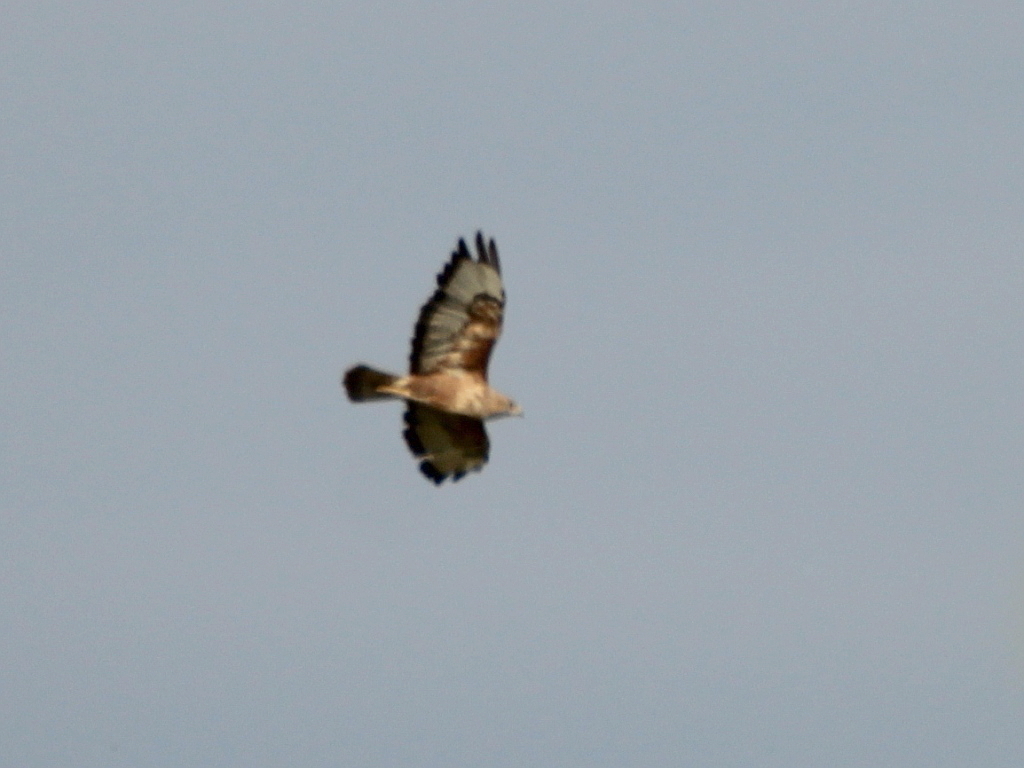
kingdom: Animalia
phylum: Chordata
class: Aves
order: Accipitriformes
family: Accipitridae
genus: Buteo
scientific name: Buteo buteo
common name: Common buzzard
